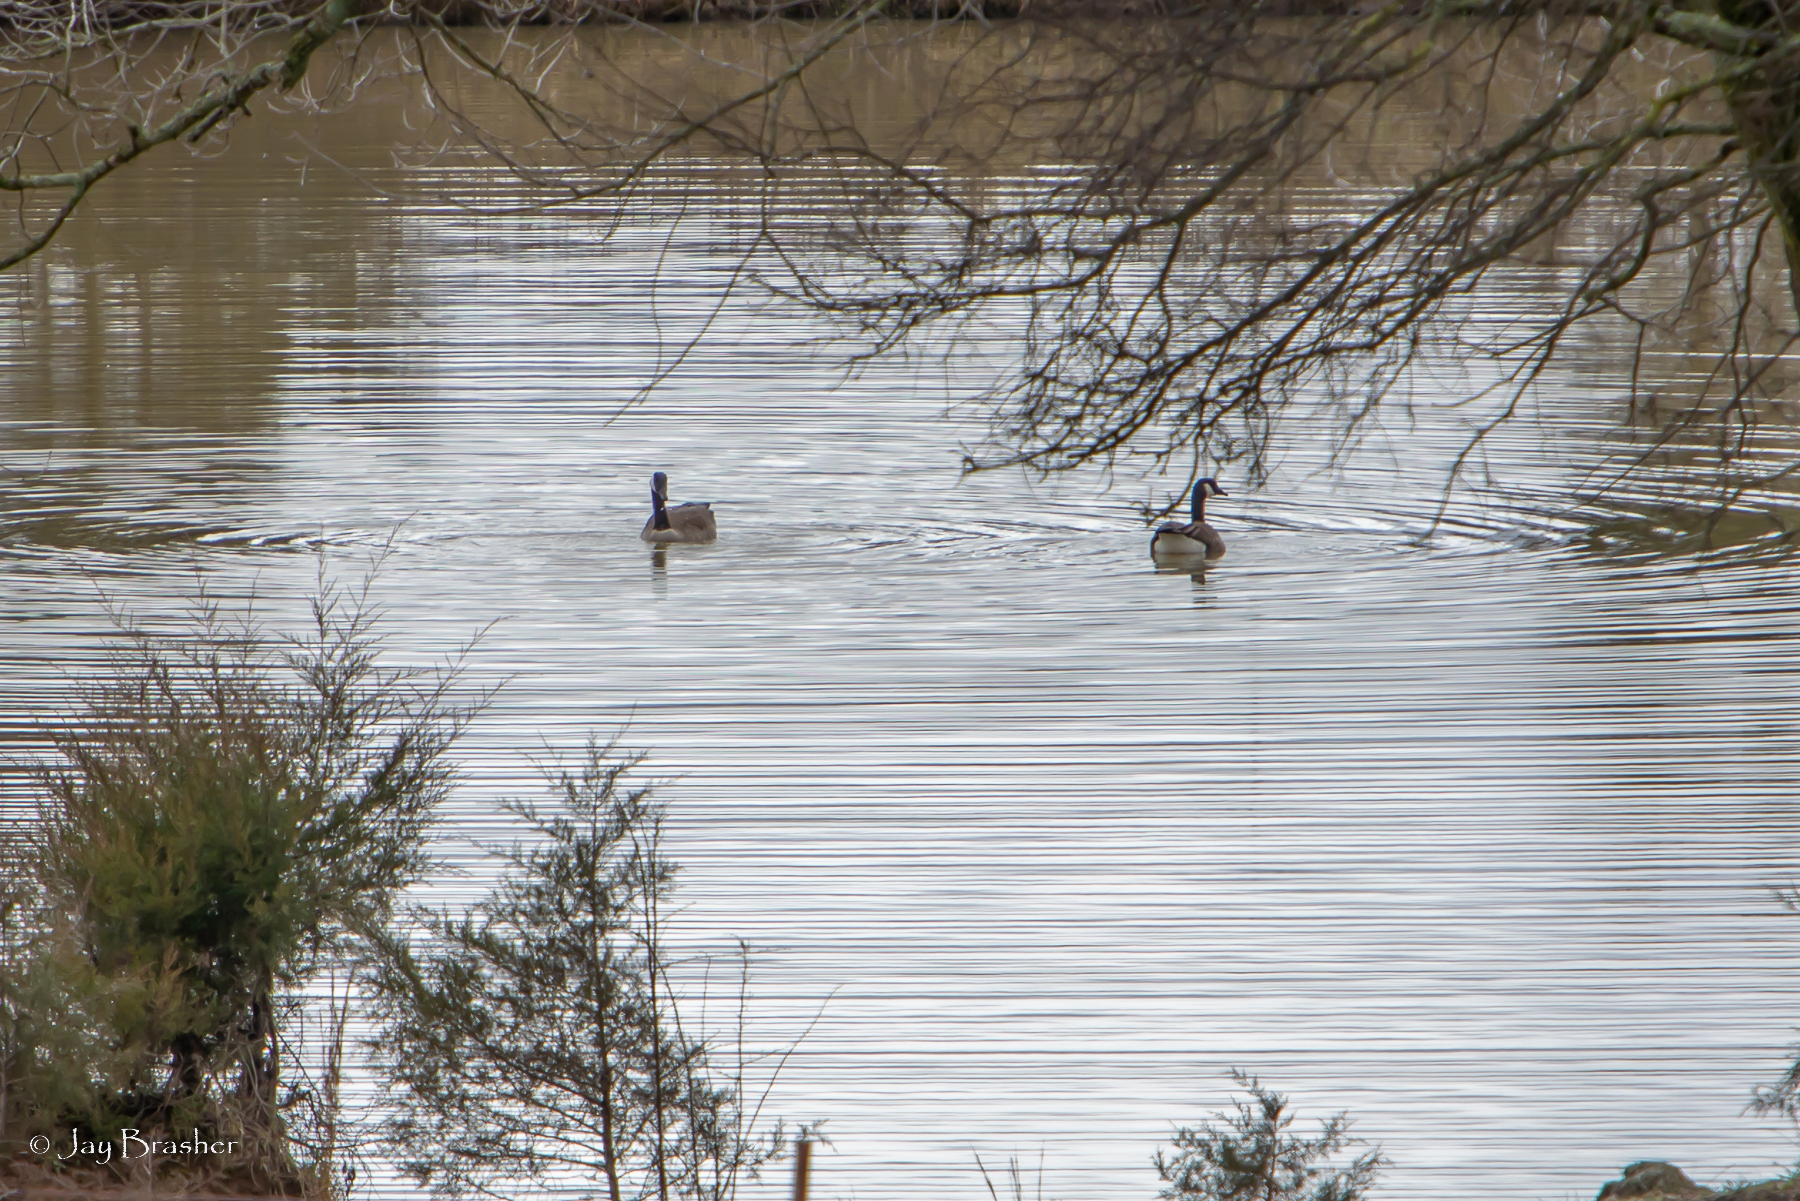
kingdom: Animalia
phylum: Chordata
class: Aves
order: Anseriformes
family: Anatidae
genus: Branta
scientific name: Branta canadensis
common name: Canada goose
